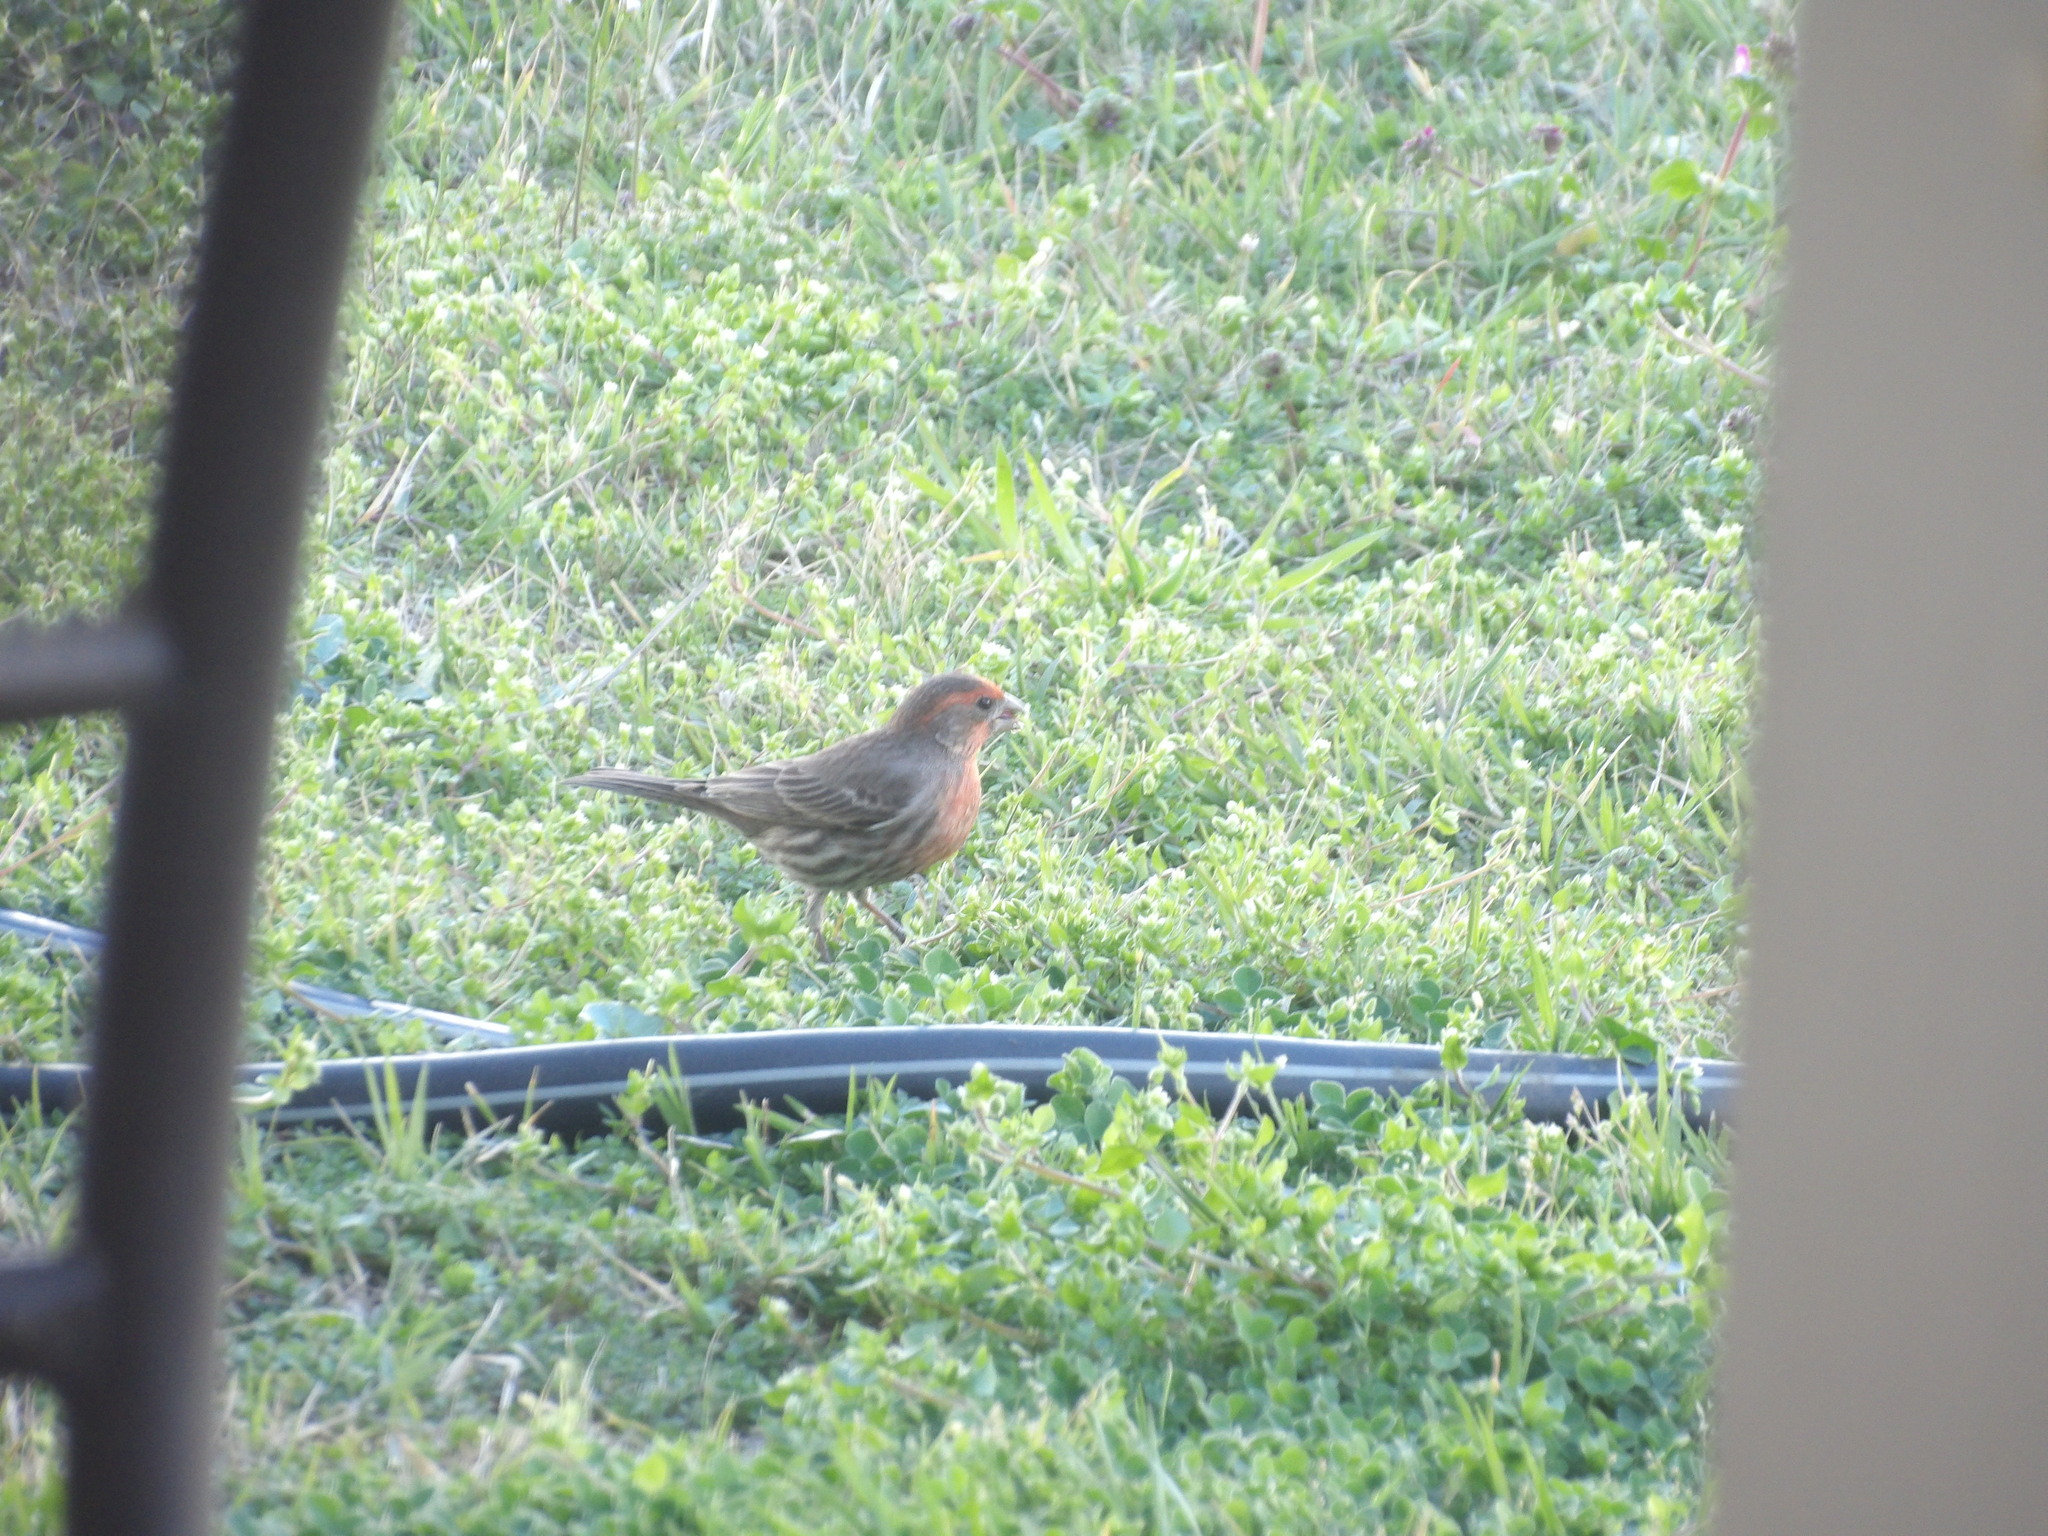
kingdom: Animalia
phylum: Chordata
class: Aves
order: Passeriformes
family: Fringillidae
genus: Haemorhous
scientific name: Haemorhous mexicanus
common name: House finch
